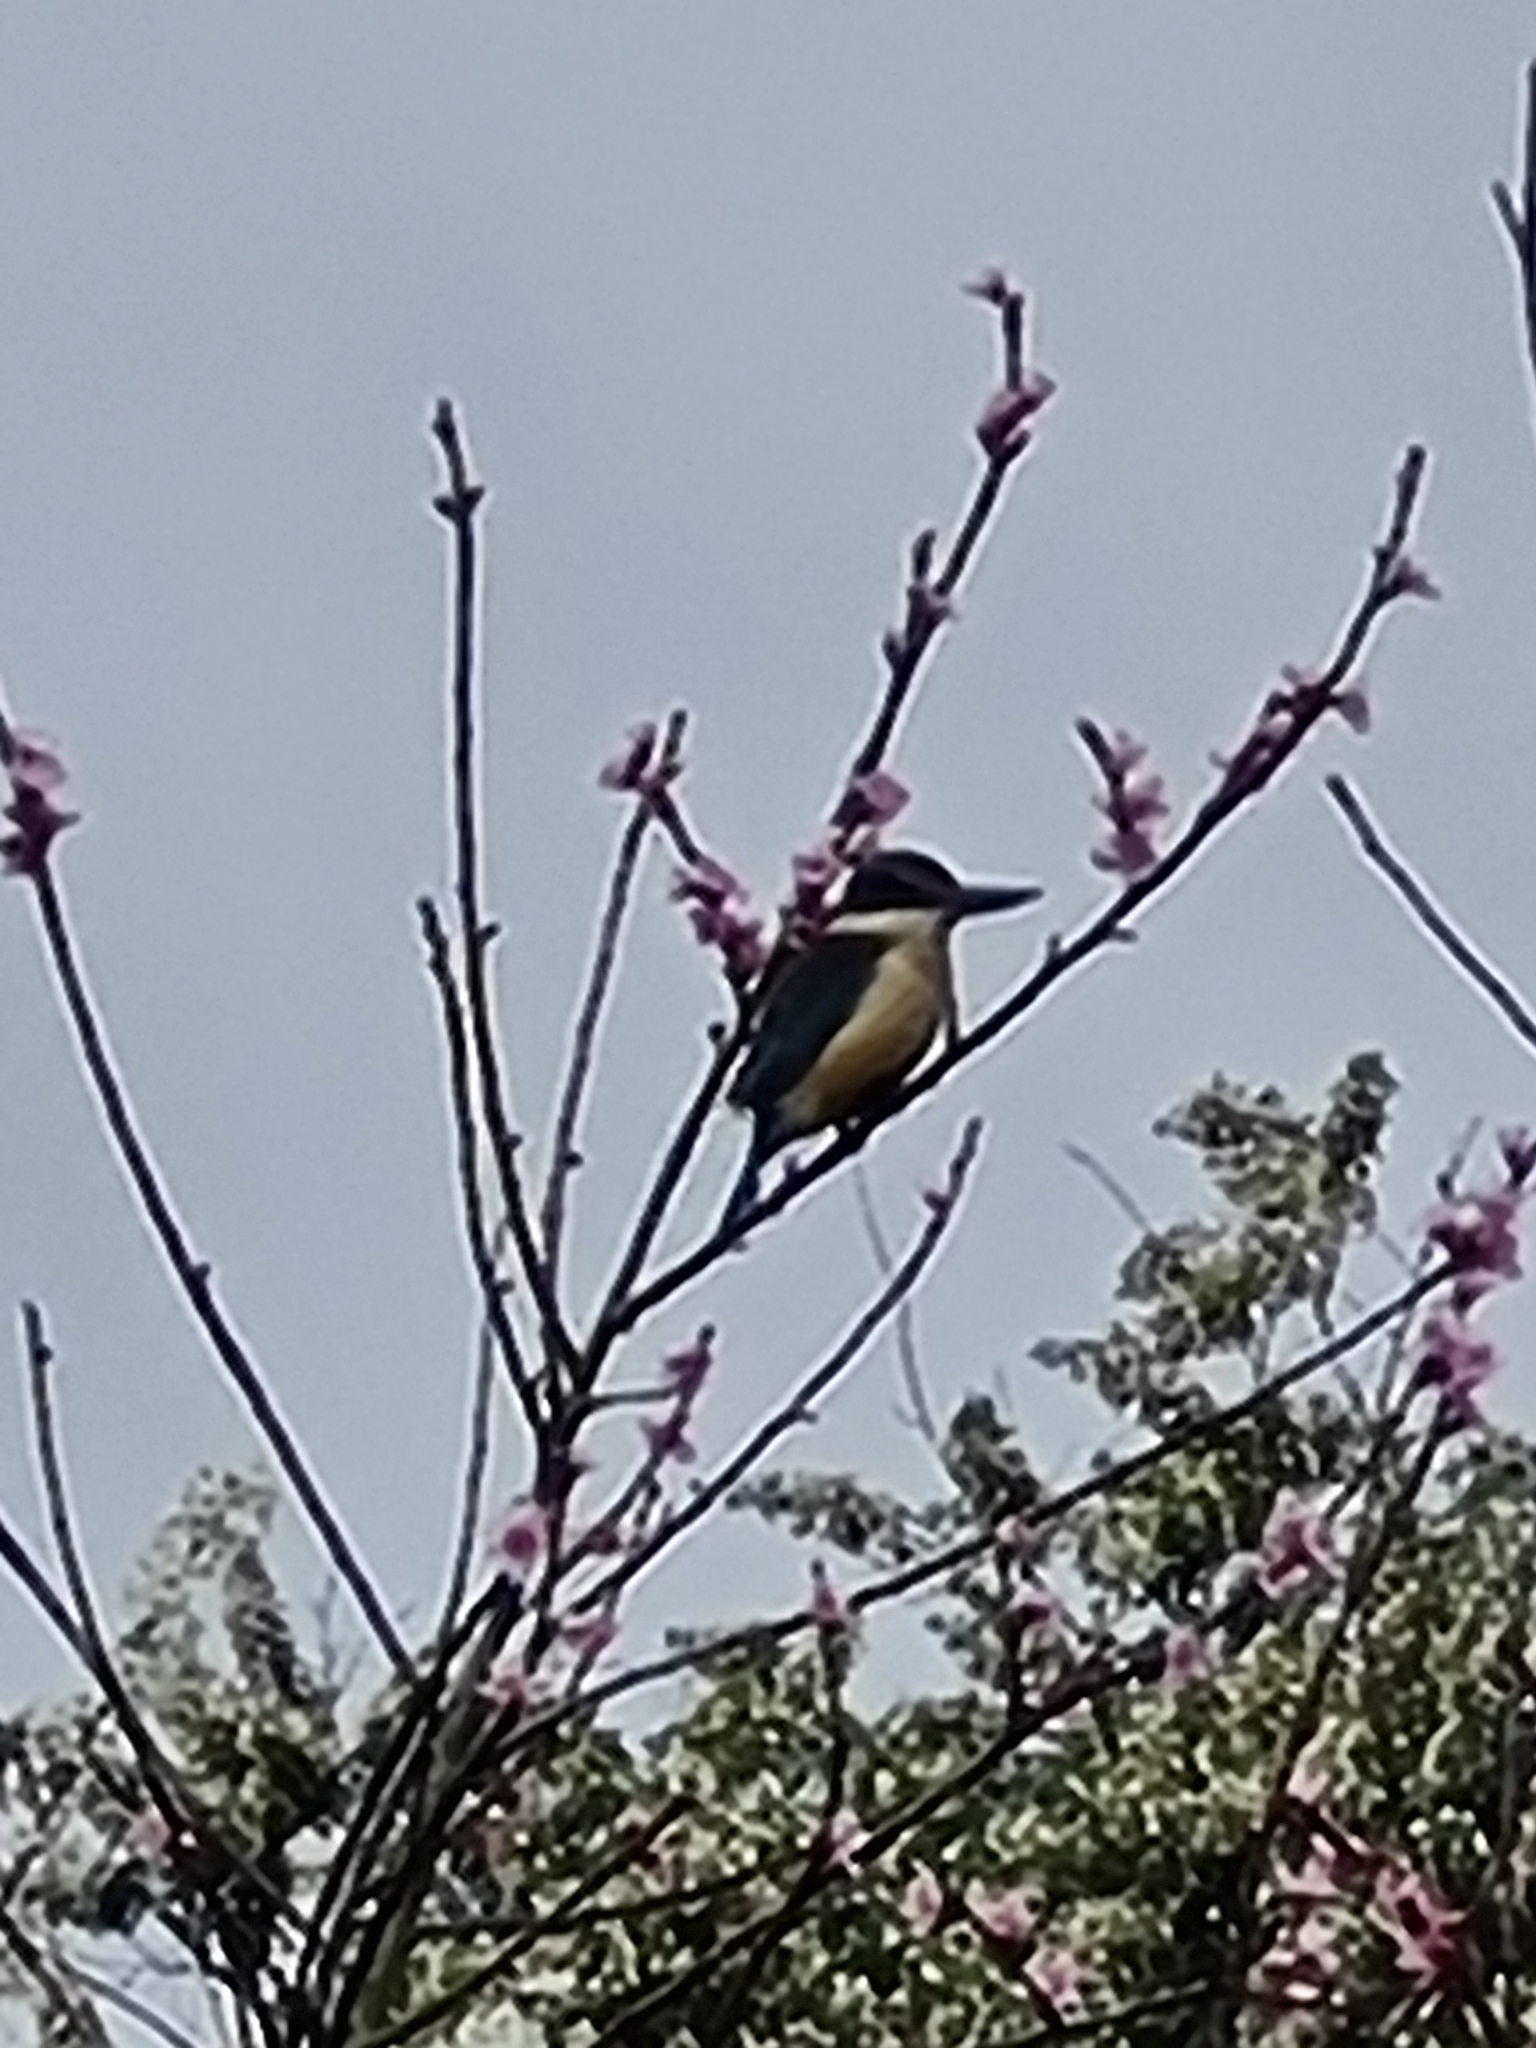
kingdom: Animalia
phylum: Chordata
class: Aves
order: Coraciiformes
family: Alcedinidae
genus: Todiramphus
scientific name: Todiramphus sanctus
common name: Sacred kingfisher
